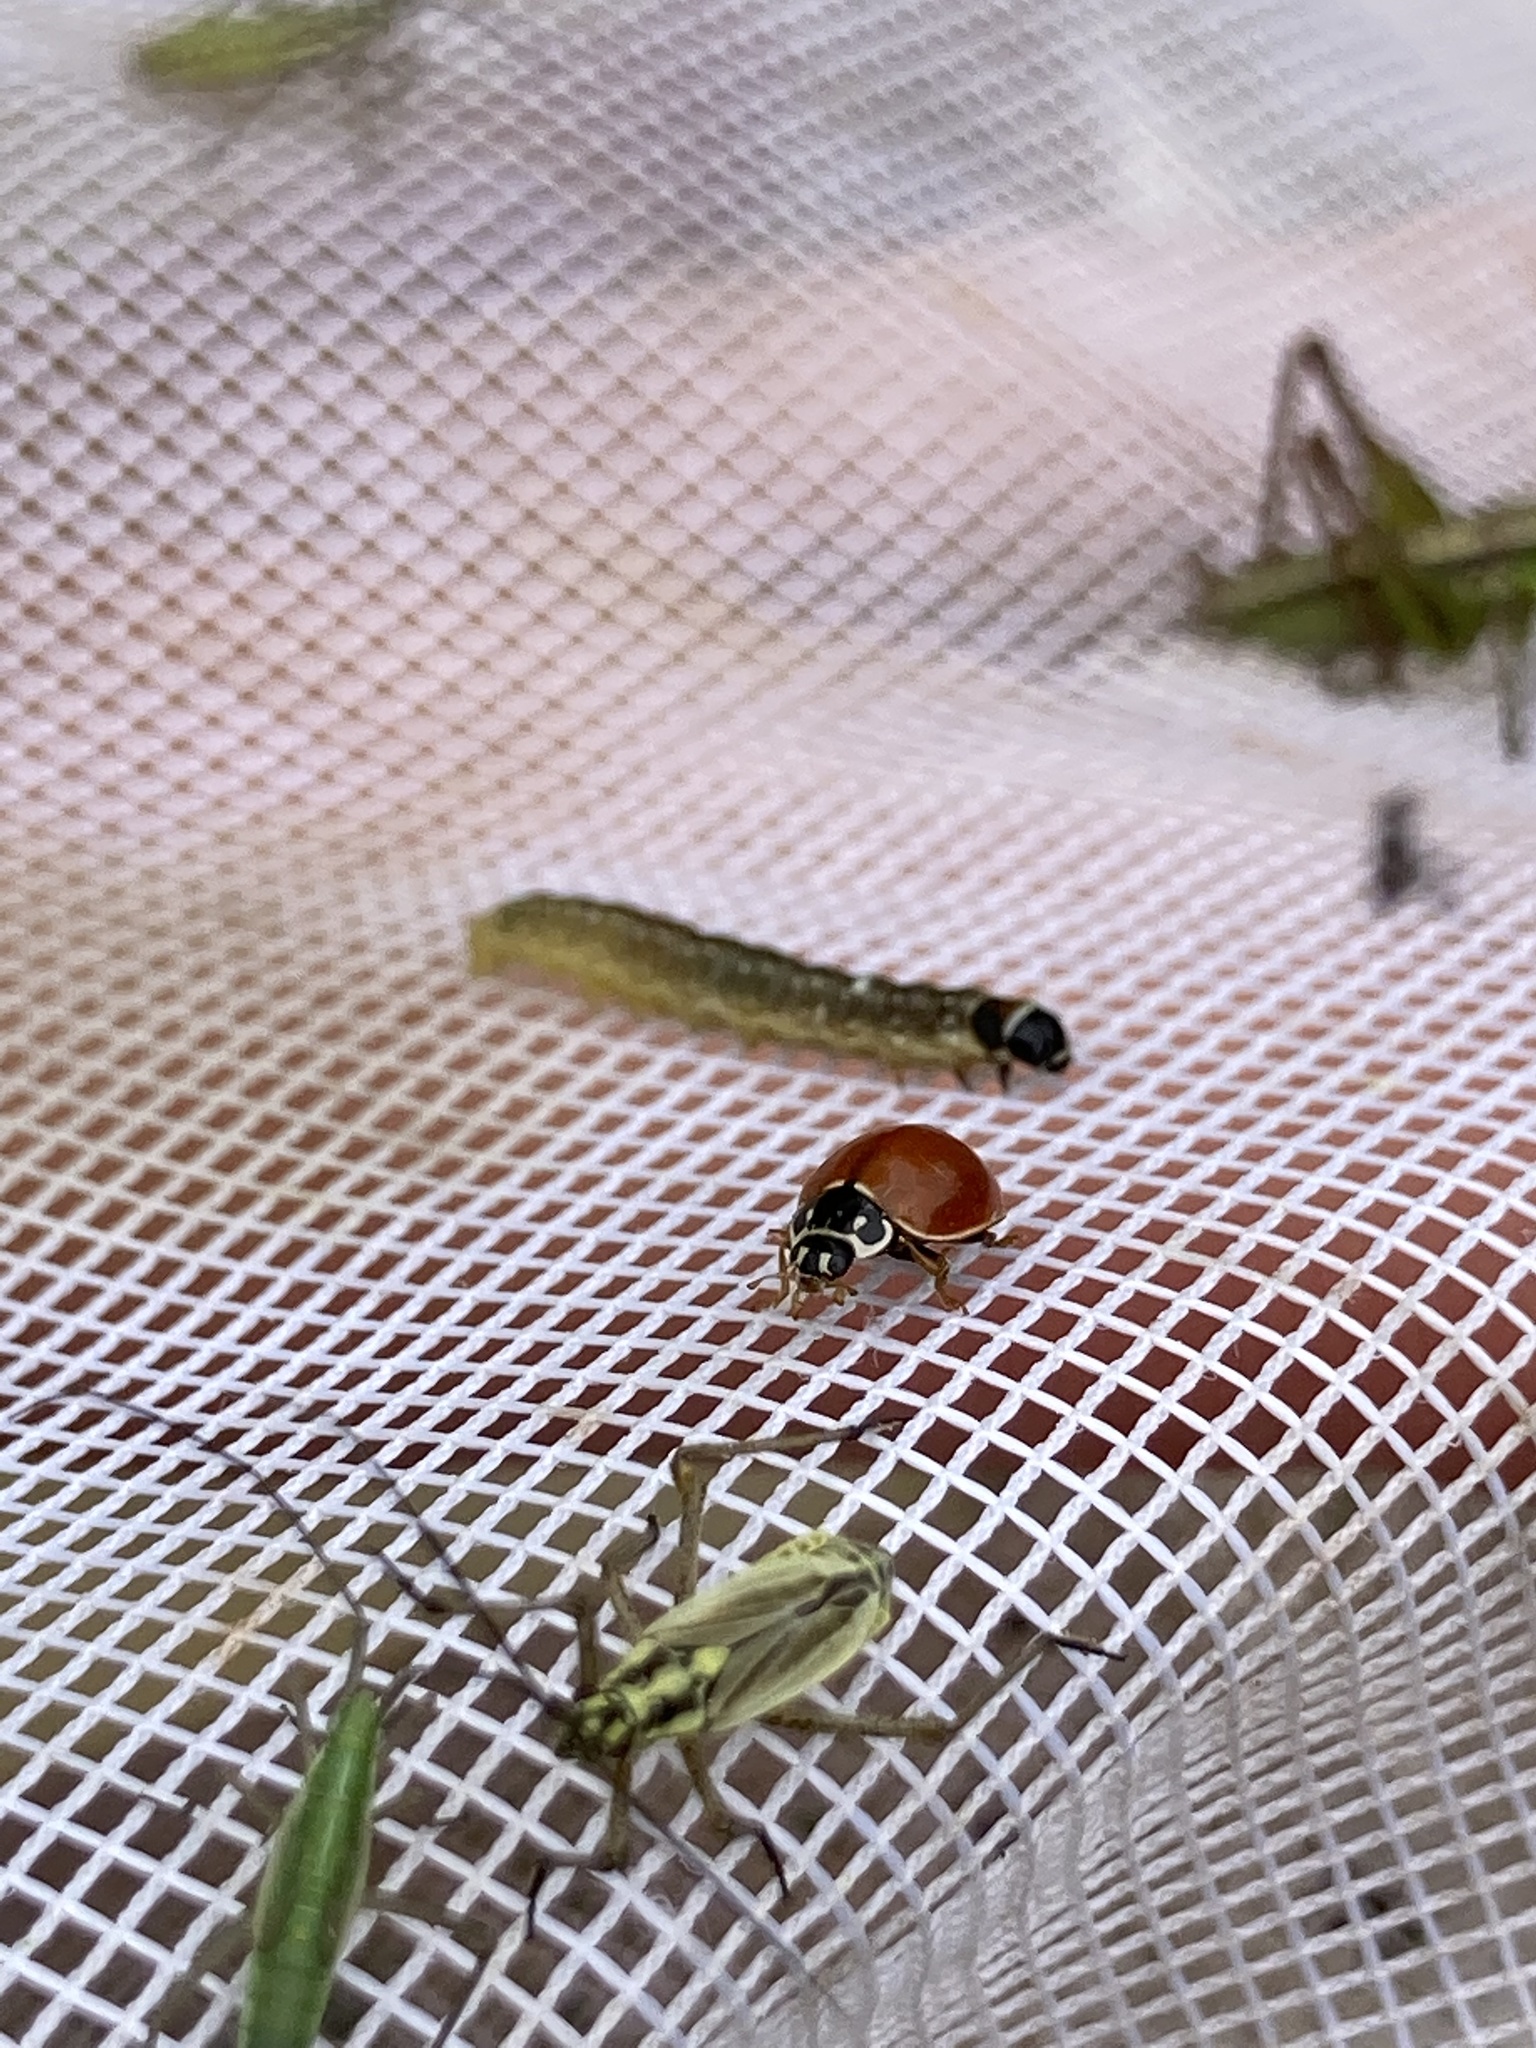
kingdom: Animalia
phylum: Arthropoda
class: Insecta
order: Coleoptera
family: Coccinellidae
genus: Cycloneda
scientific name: Cycloneda munda
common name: Polished lady beetle
